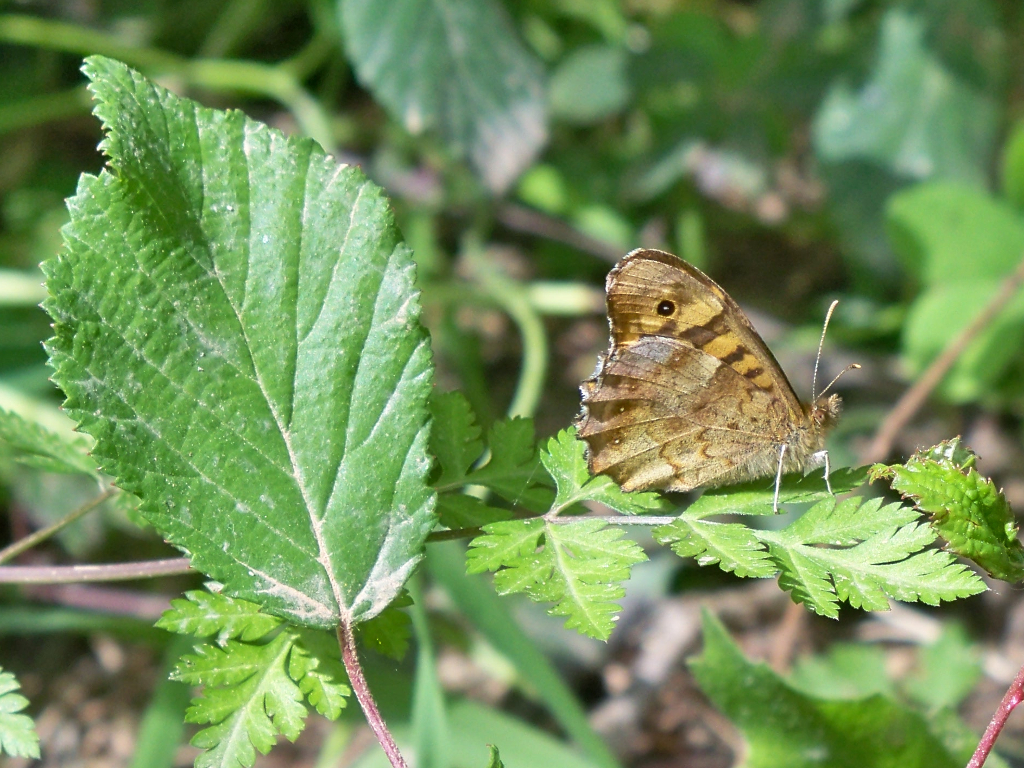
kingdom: Animalia
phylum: Arthropoda
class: Insecta
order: Lepidoptera
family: Nymphalidae
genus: Pararge
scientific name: Pararge aegeria
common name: Speckled wood
